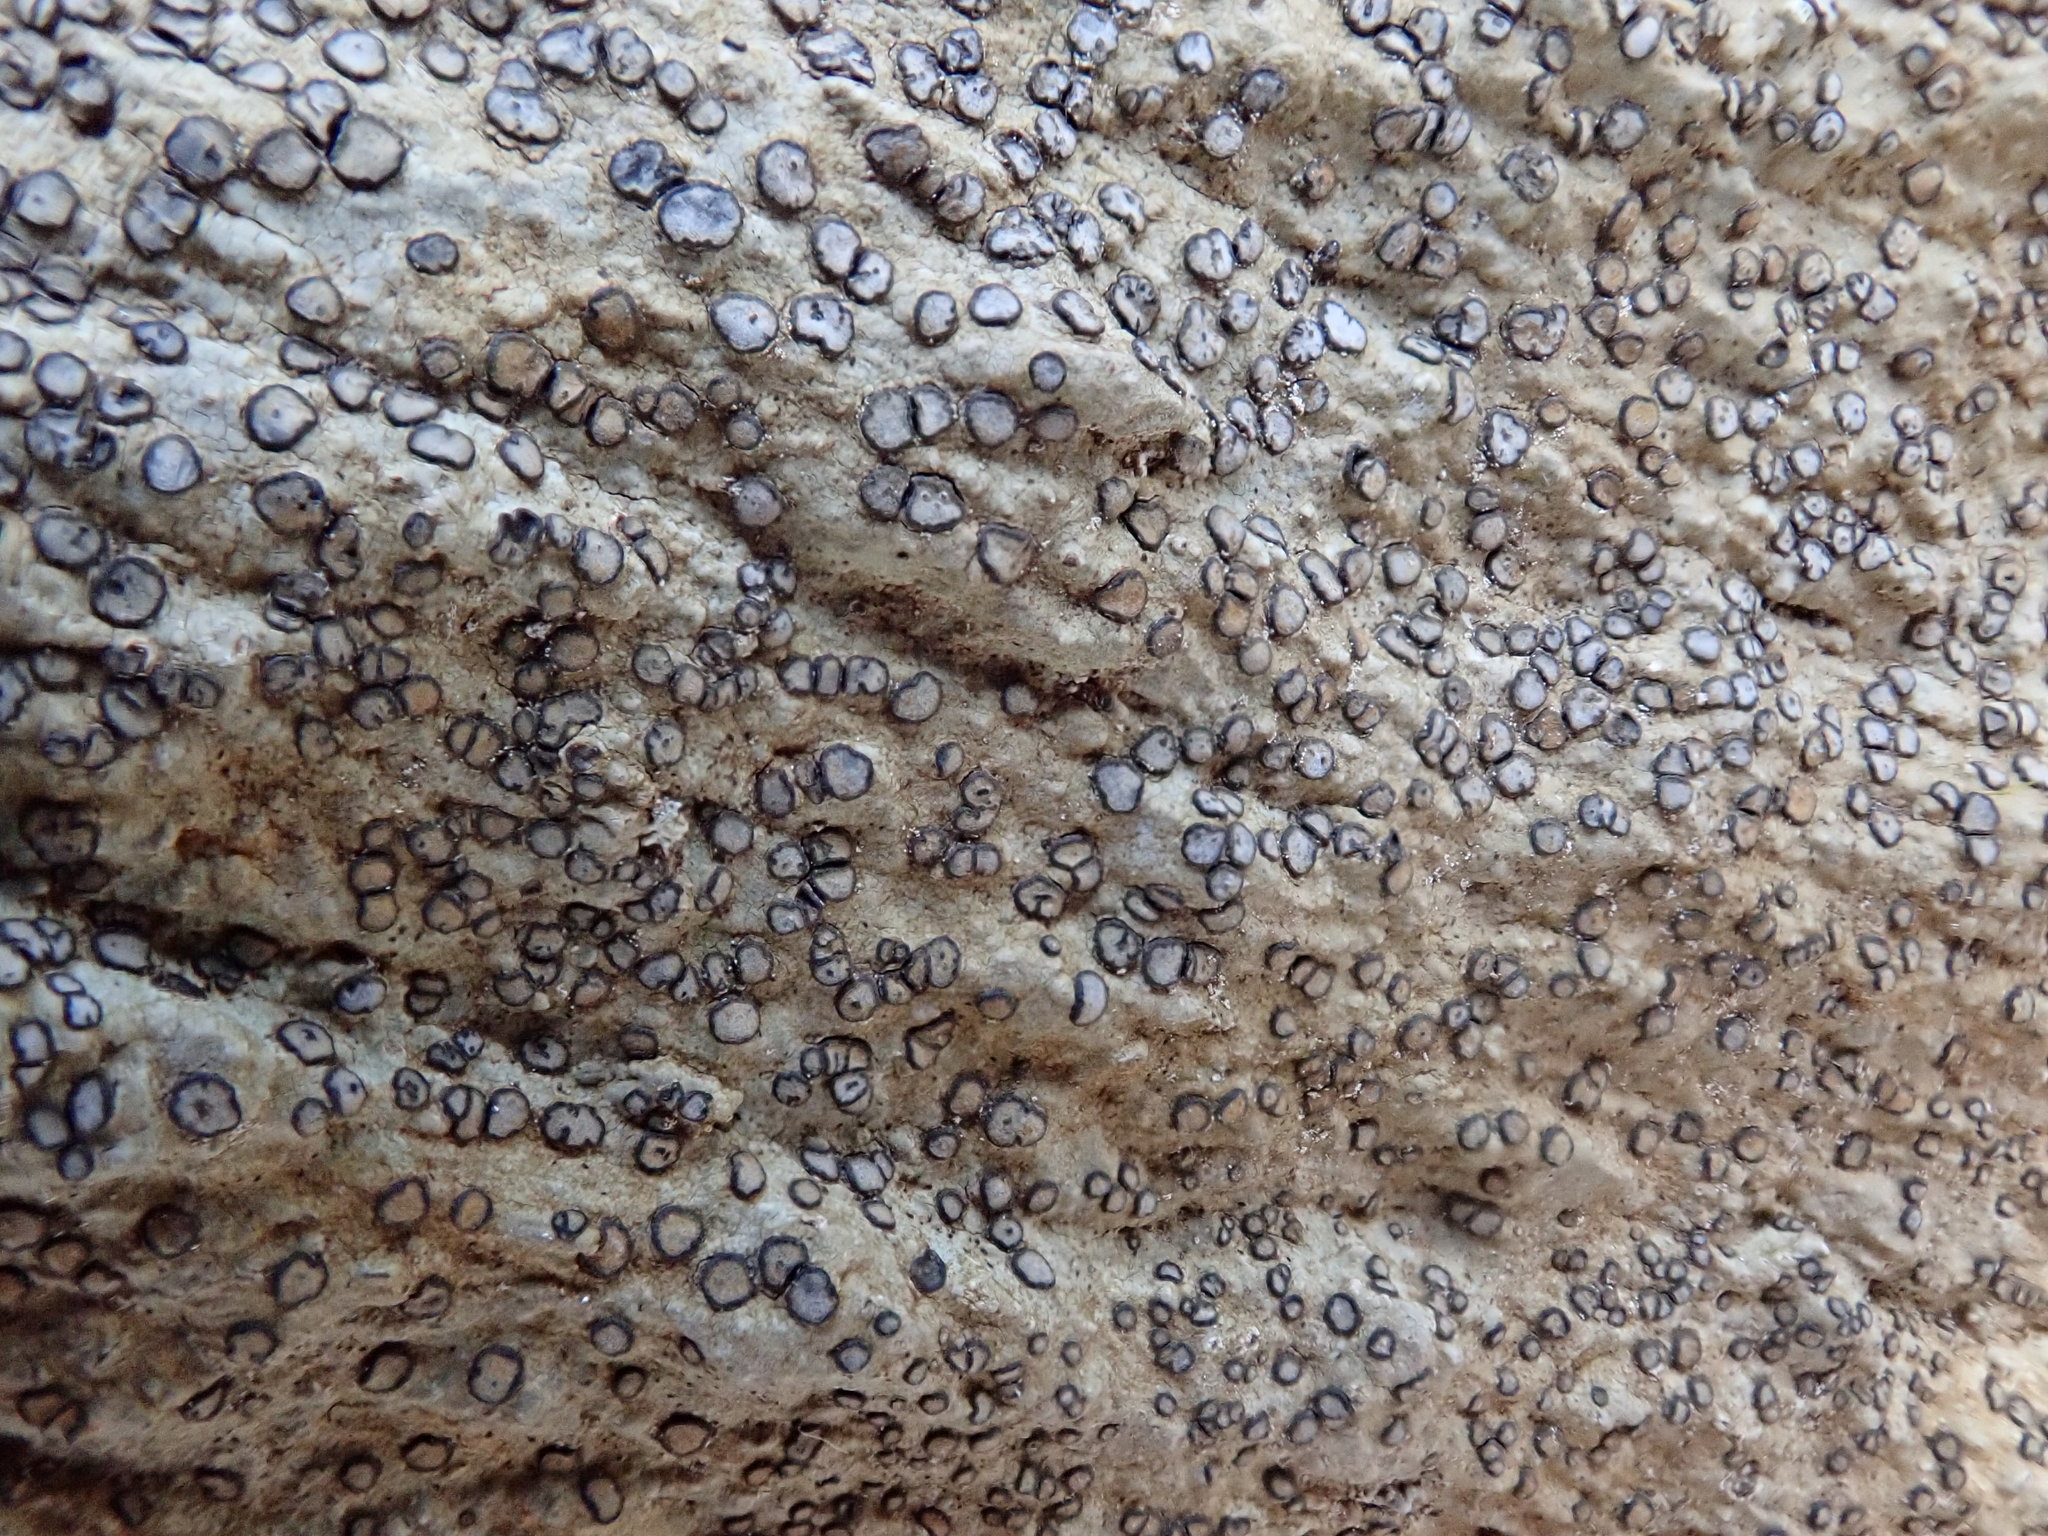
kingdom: Fungi
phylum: Ascomycota
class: Lecanoromycetes
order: Lecideales
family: Lecideaceae
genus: Porpidia
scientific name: Porpidia albocaerulescens
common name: Smokey-eyed boulder lichen
